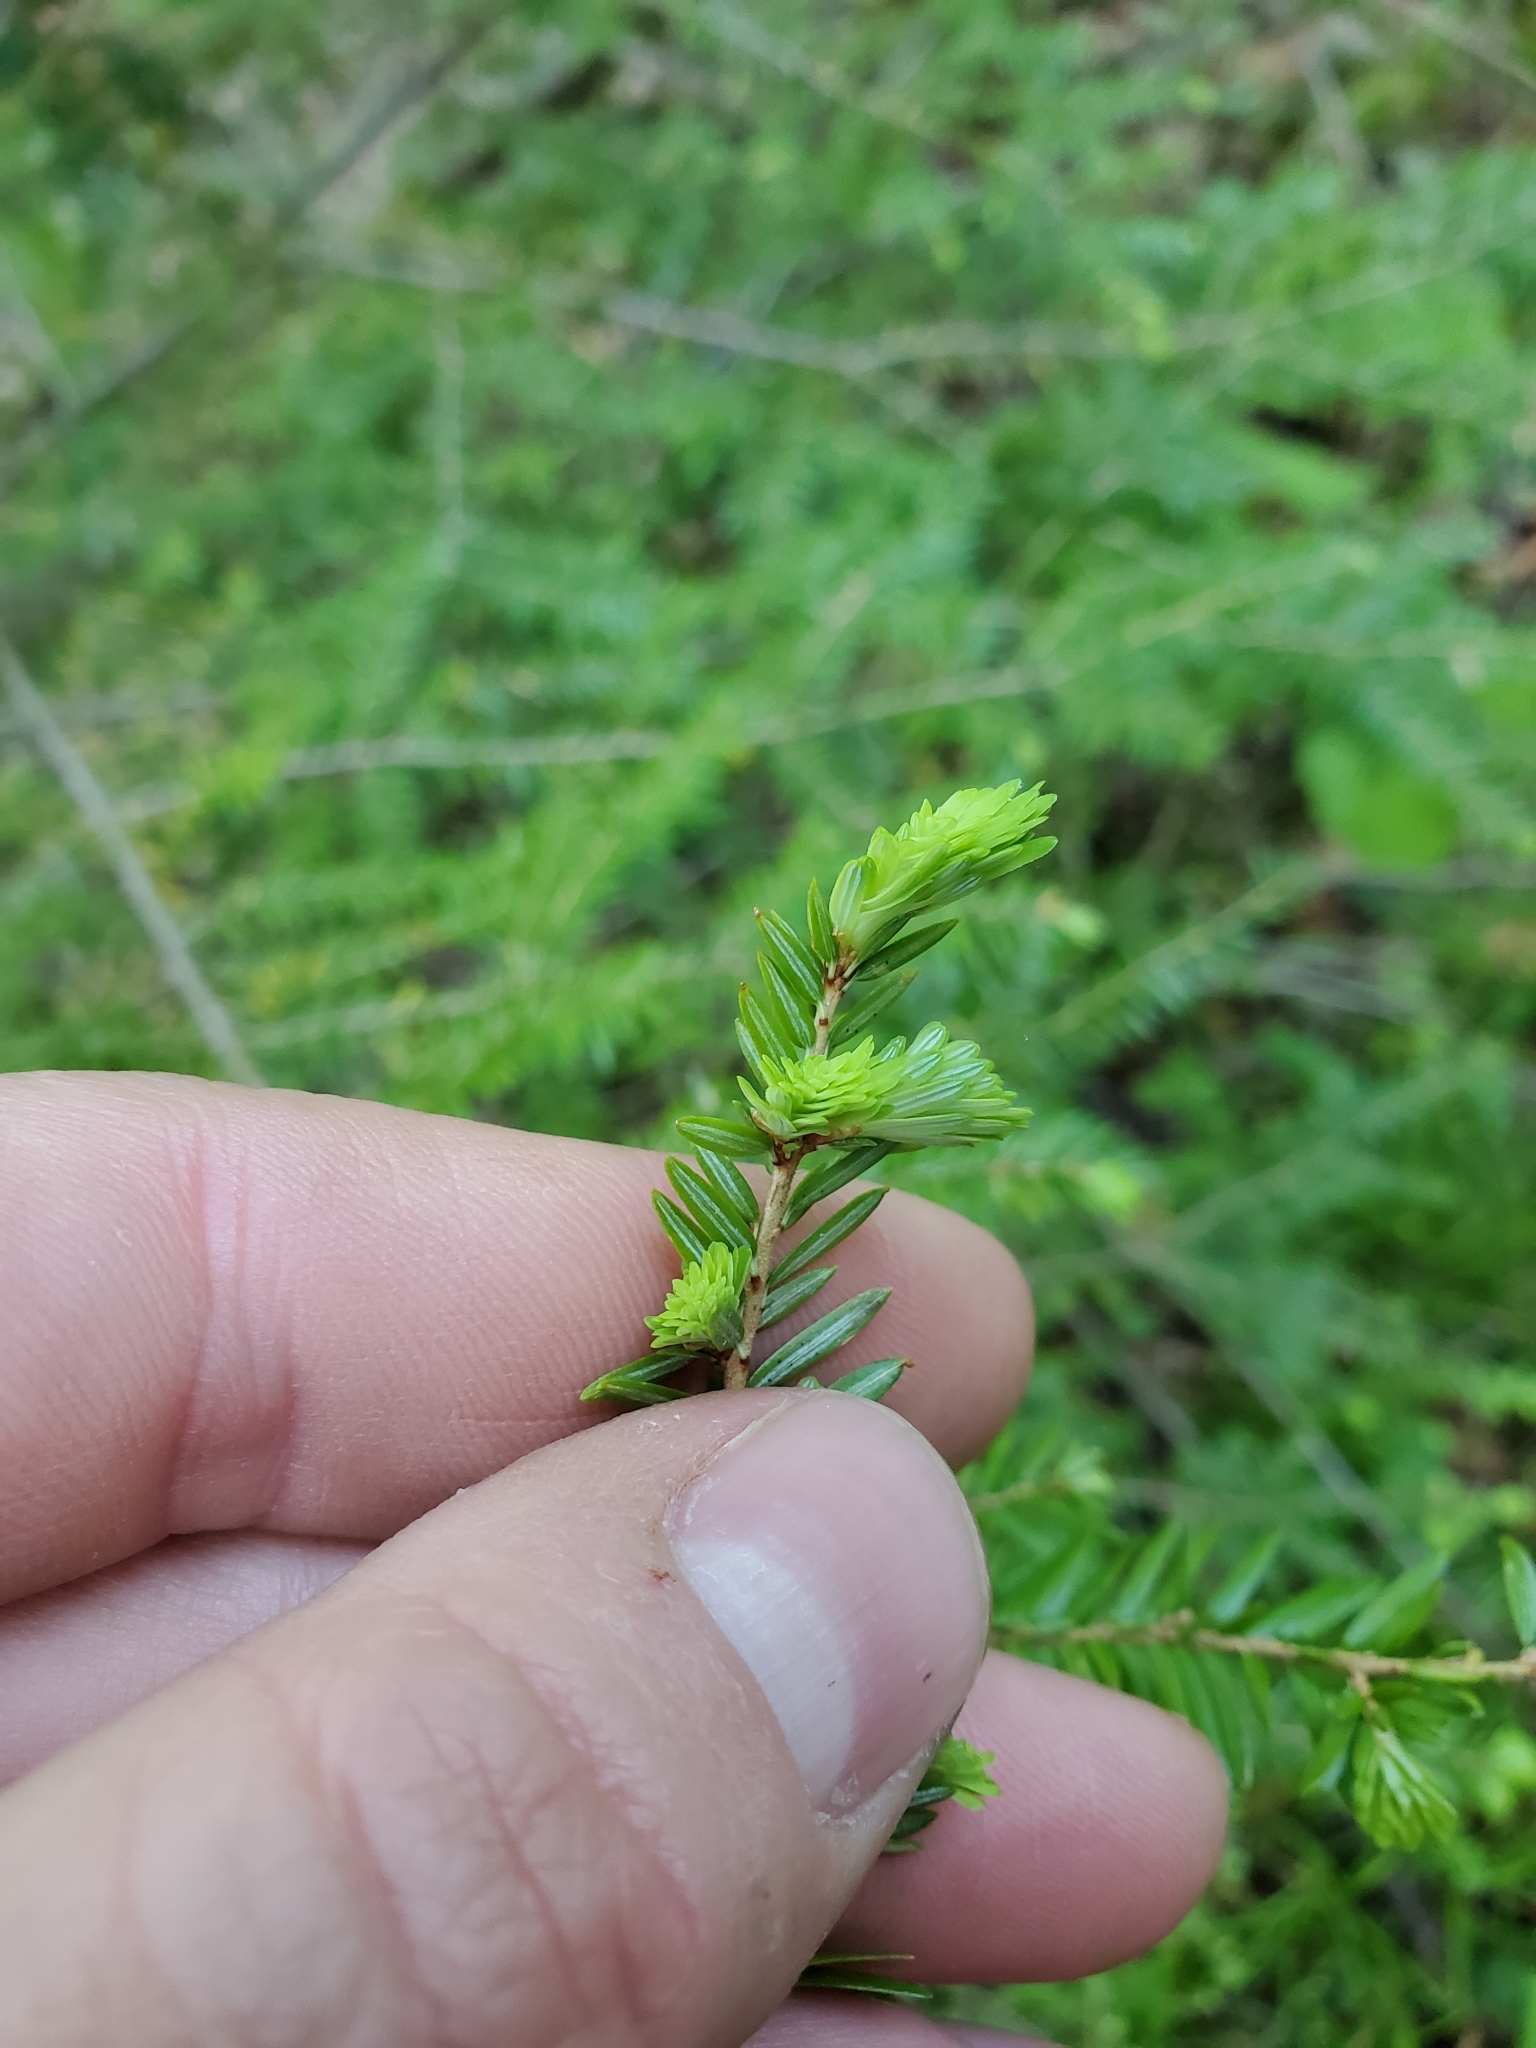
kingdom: Plantae
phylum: Tracheophyta
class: Pinopsida
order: Pinales
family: Pinaceae
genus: Tsuga
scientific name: Tsuga canadensis
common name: Eastern hemlock
